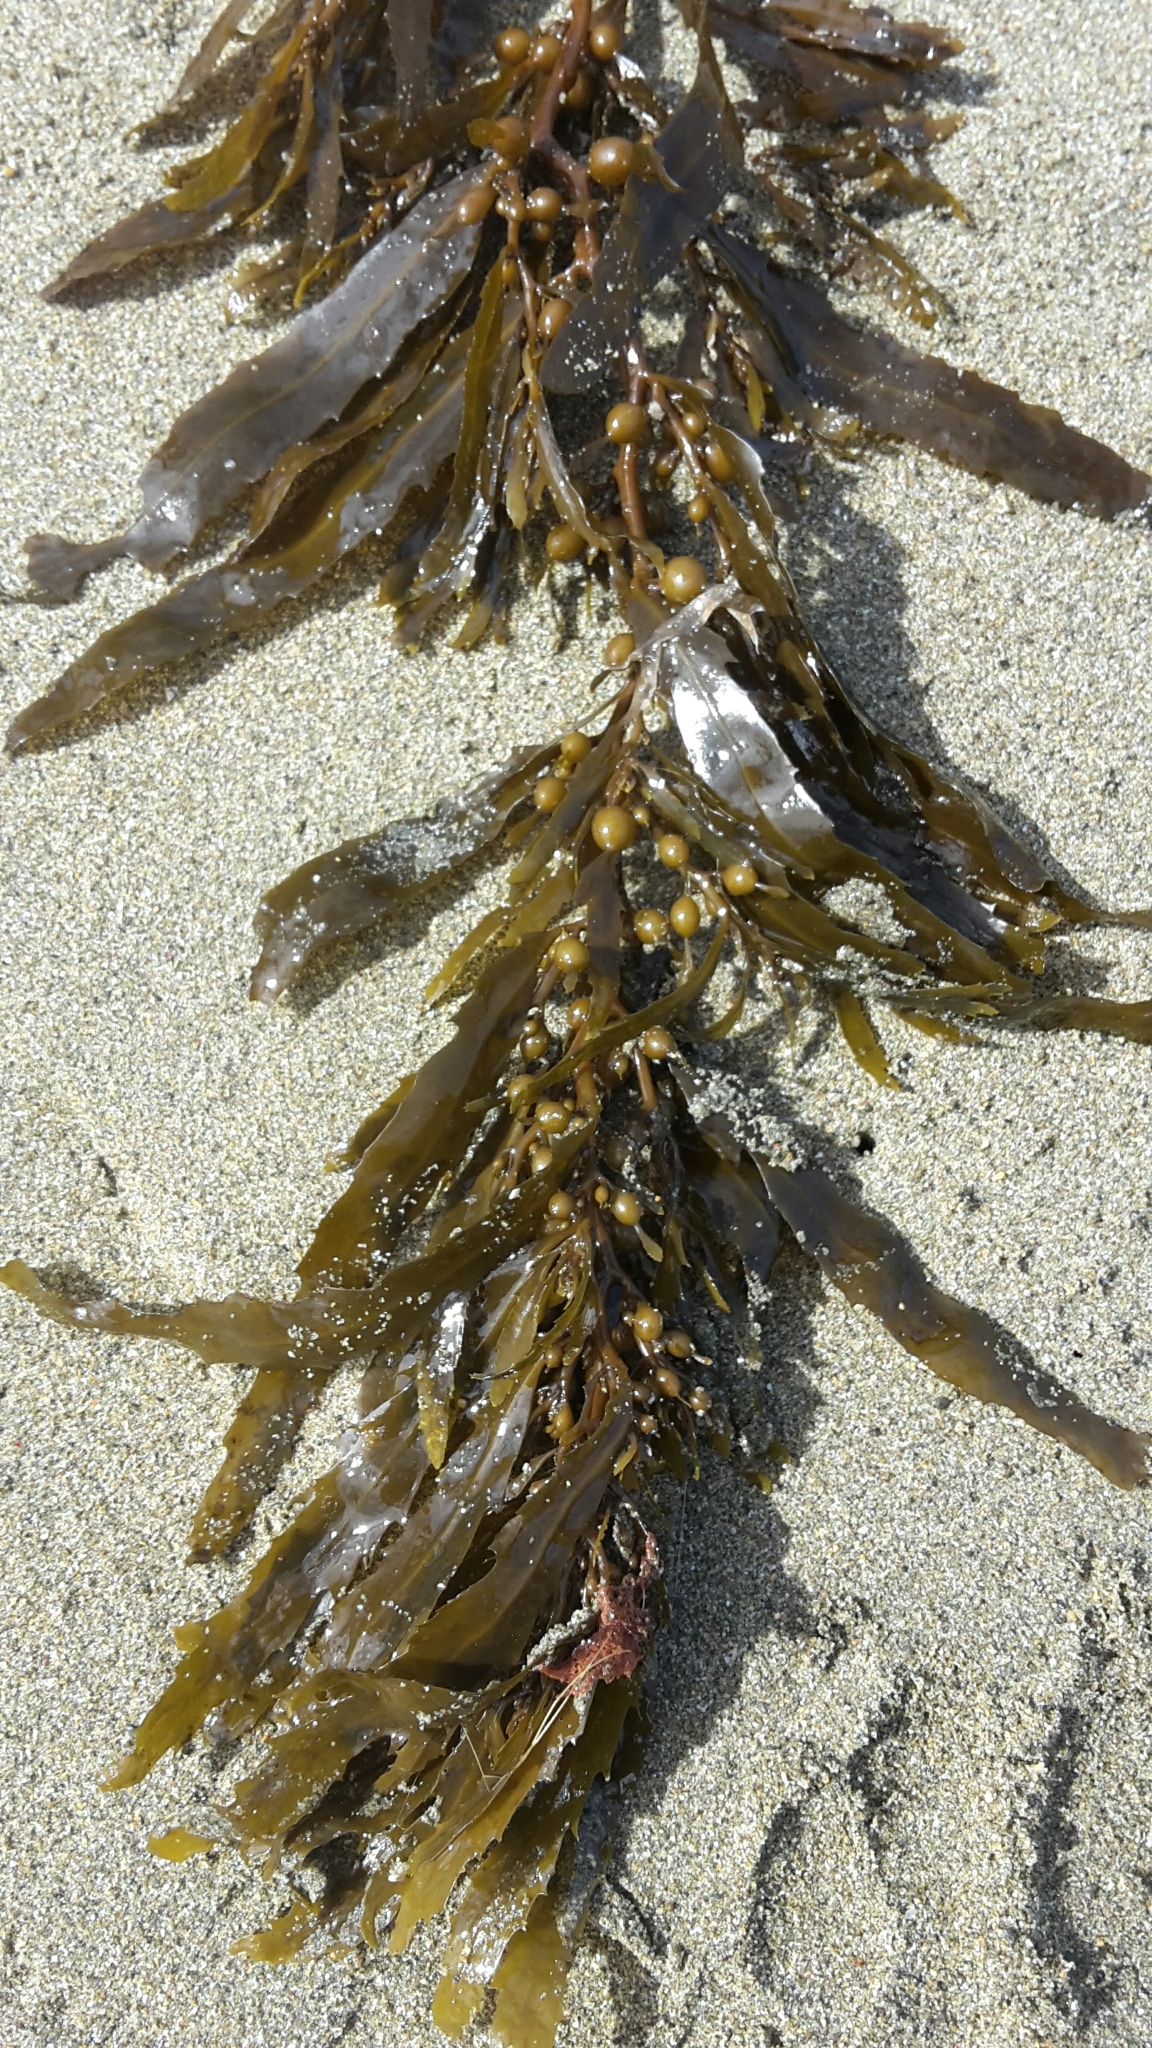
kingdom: Chromista
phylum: Ochrophyta
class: Phaeophyceae
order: Fucales
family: Sargassaceae
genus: Sargassum
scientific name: Sargassum sinclairii
